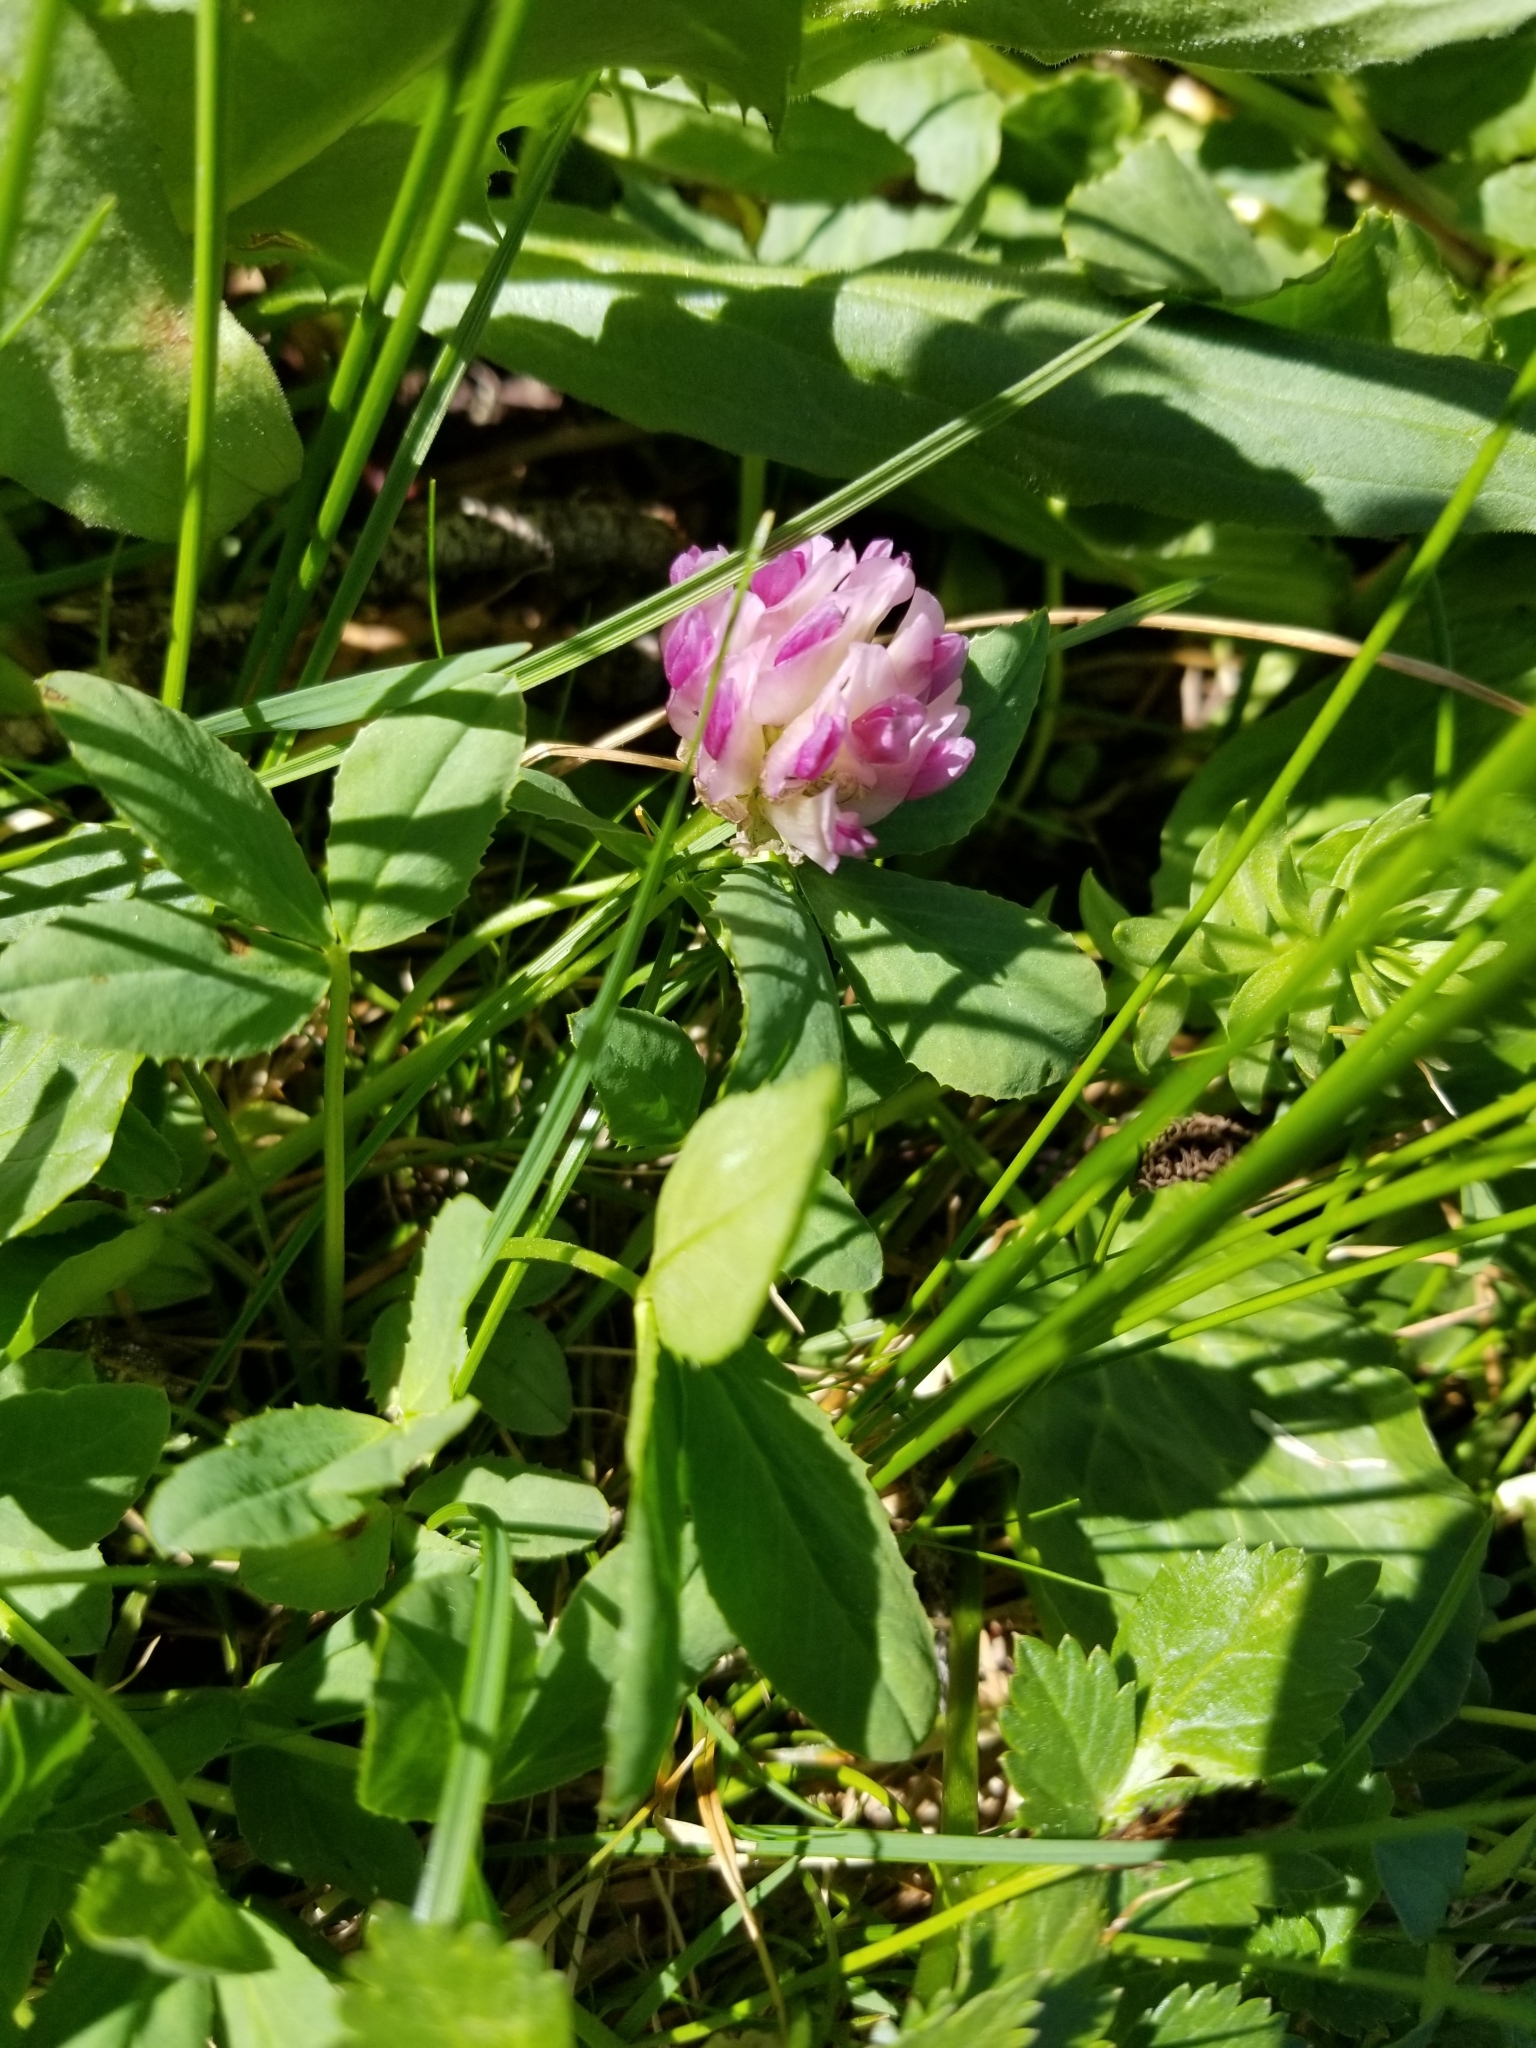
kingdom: Plantae
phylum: Tracheophyta
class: Magnoliopsida
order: Fabales
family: Fabaceae
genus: Trifolium
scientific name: Trifolium parryi
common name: Parry's clover
